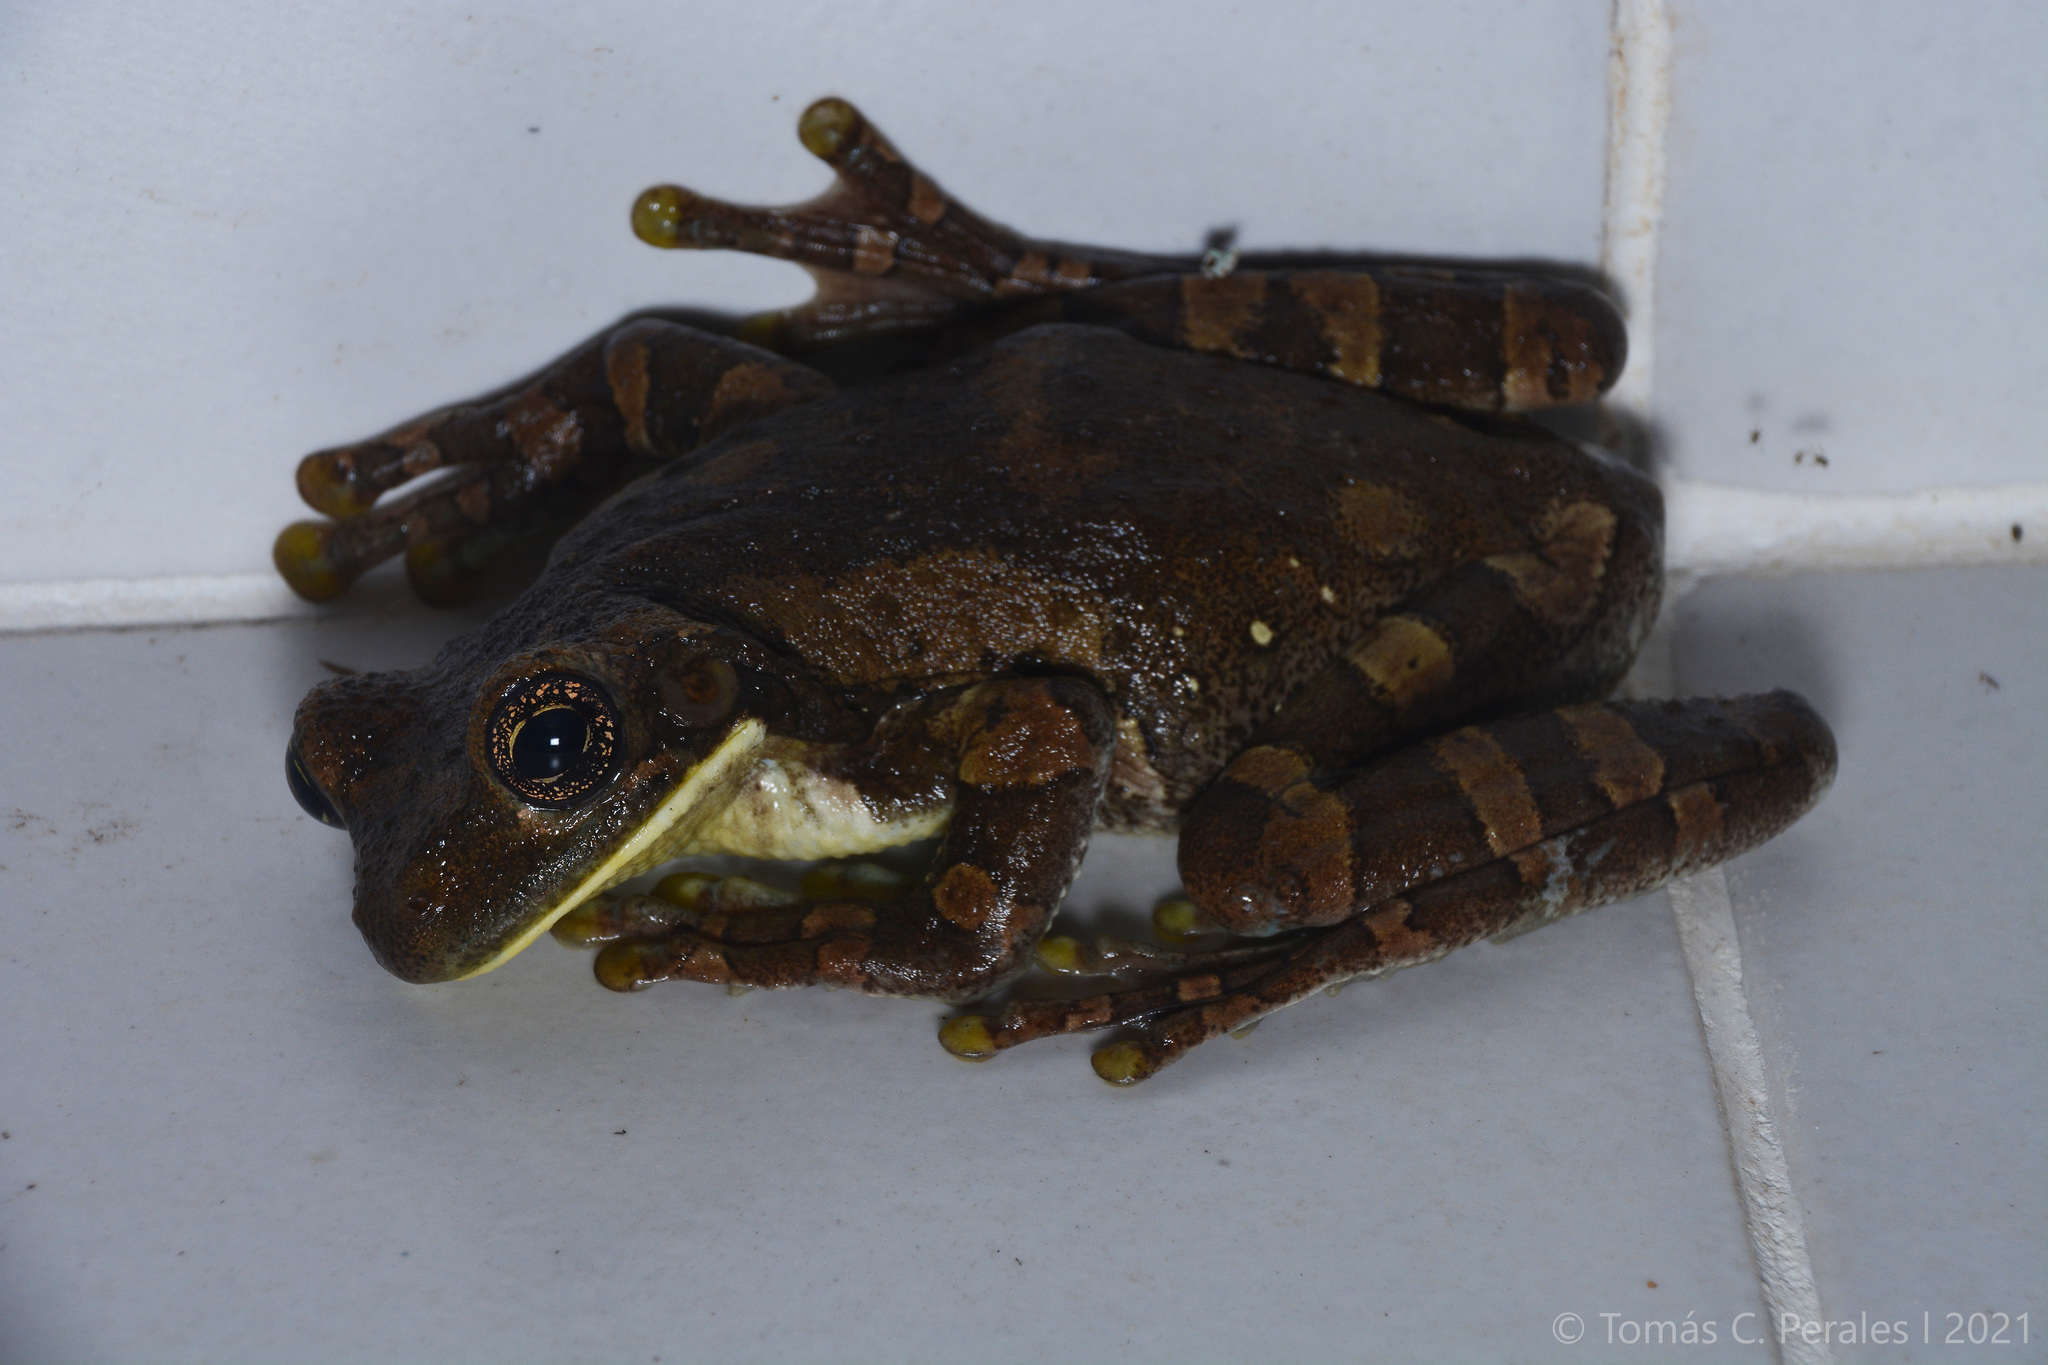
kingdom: Animalia
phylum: Chordata
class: Amphibia
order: Anura
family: Hylidae
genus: Trachycephalus
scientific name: Trachycephalus typhonius
